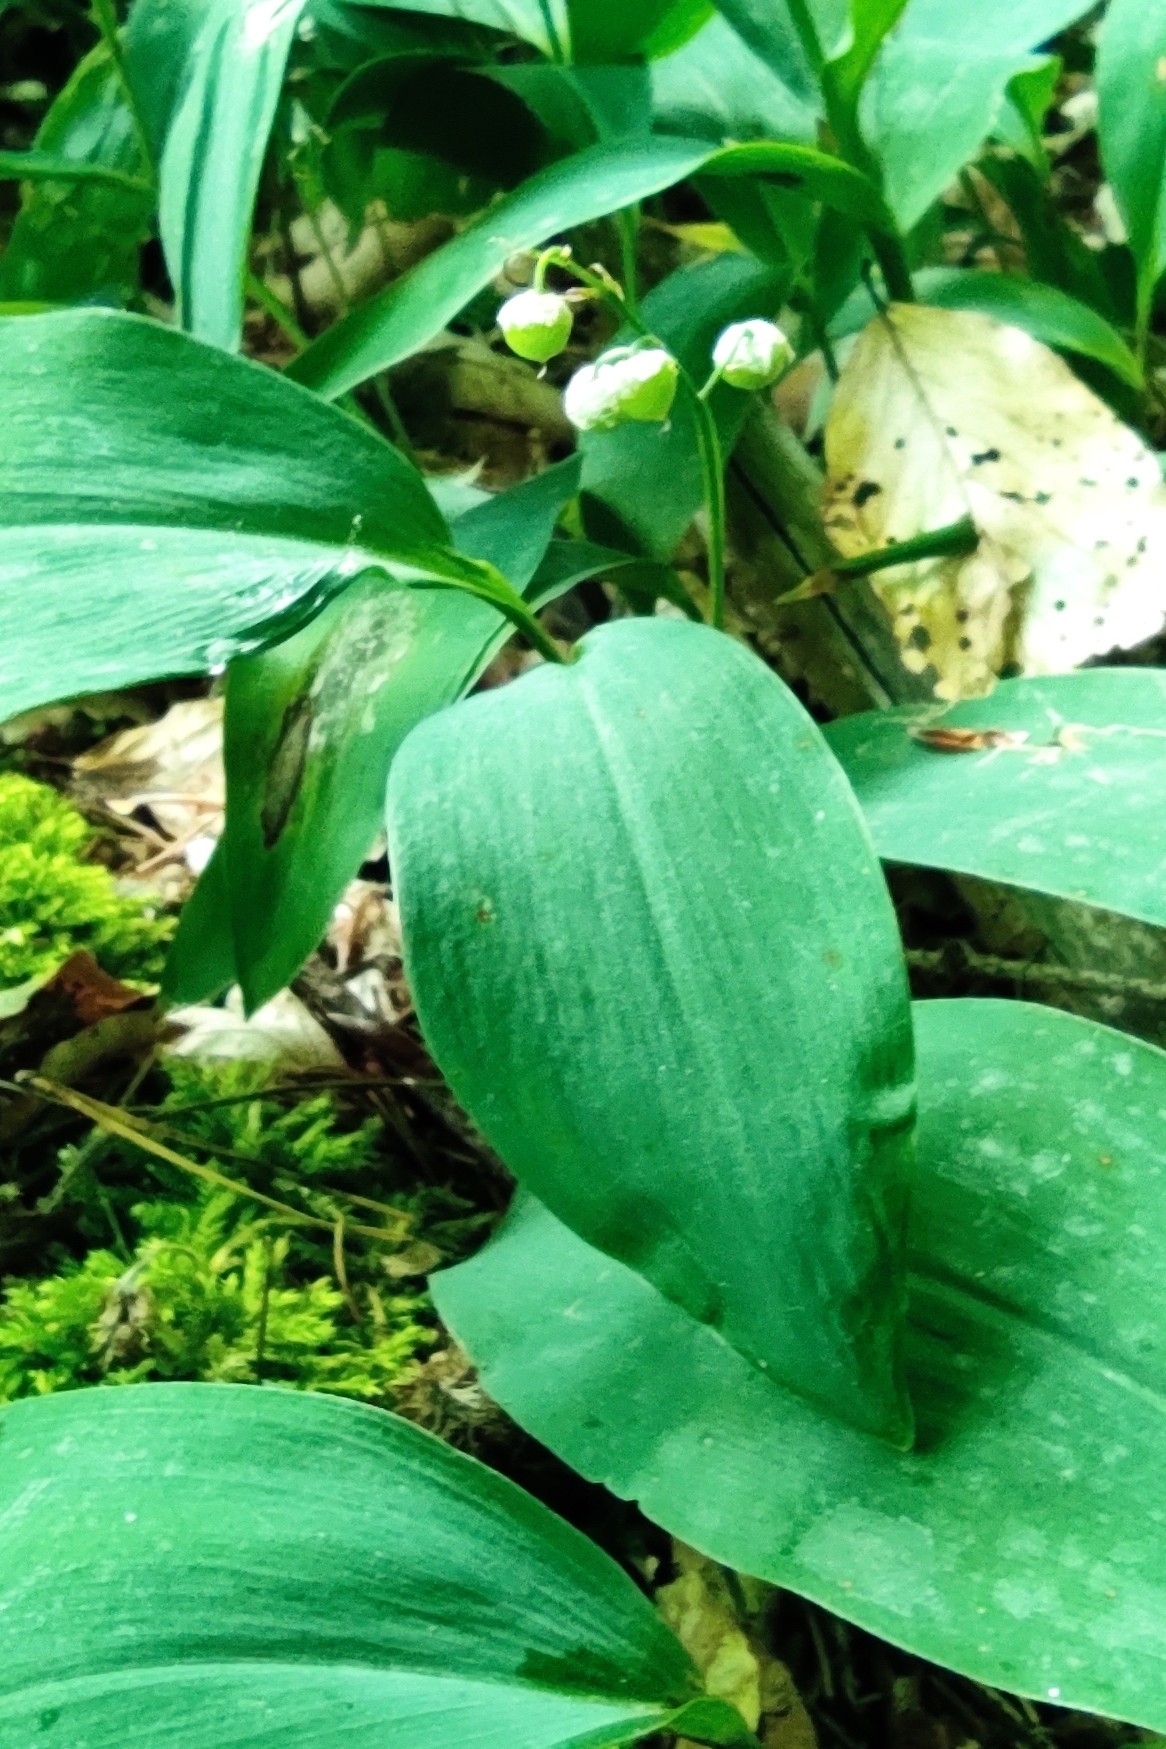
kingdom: Plantae
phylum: Tracheophyta
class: Liliopsida
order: Asparagales
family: Asparagaceae
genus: Convallaria
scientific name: Convallaria majalis
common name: Lily-of-the-valley
